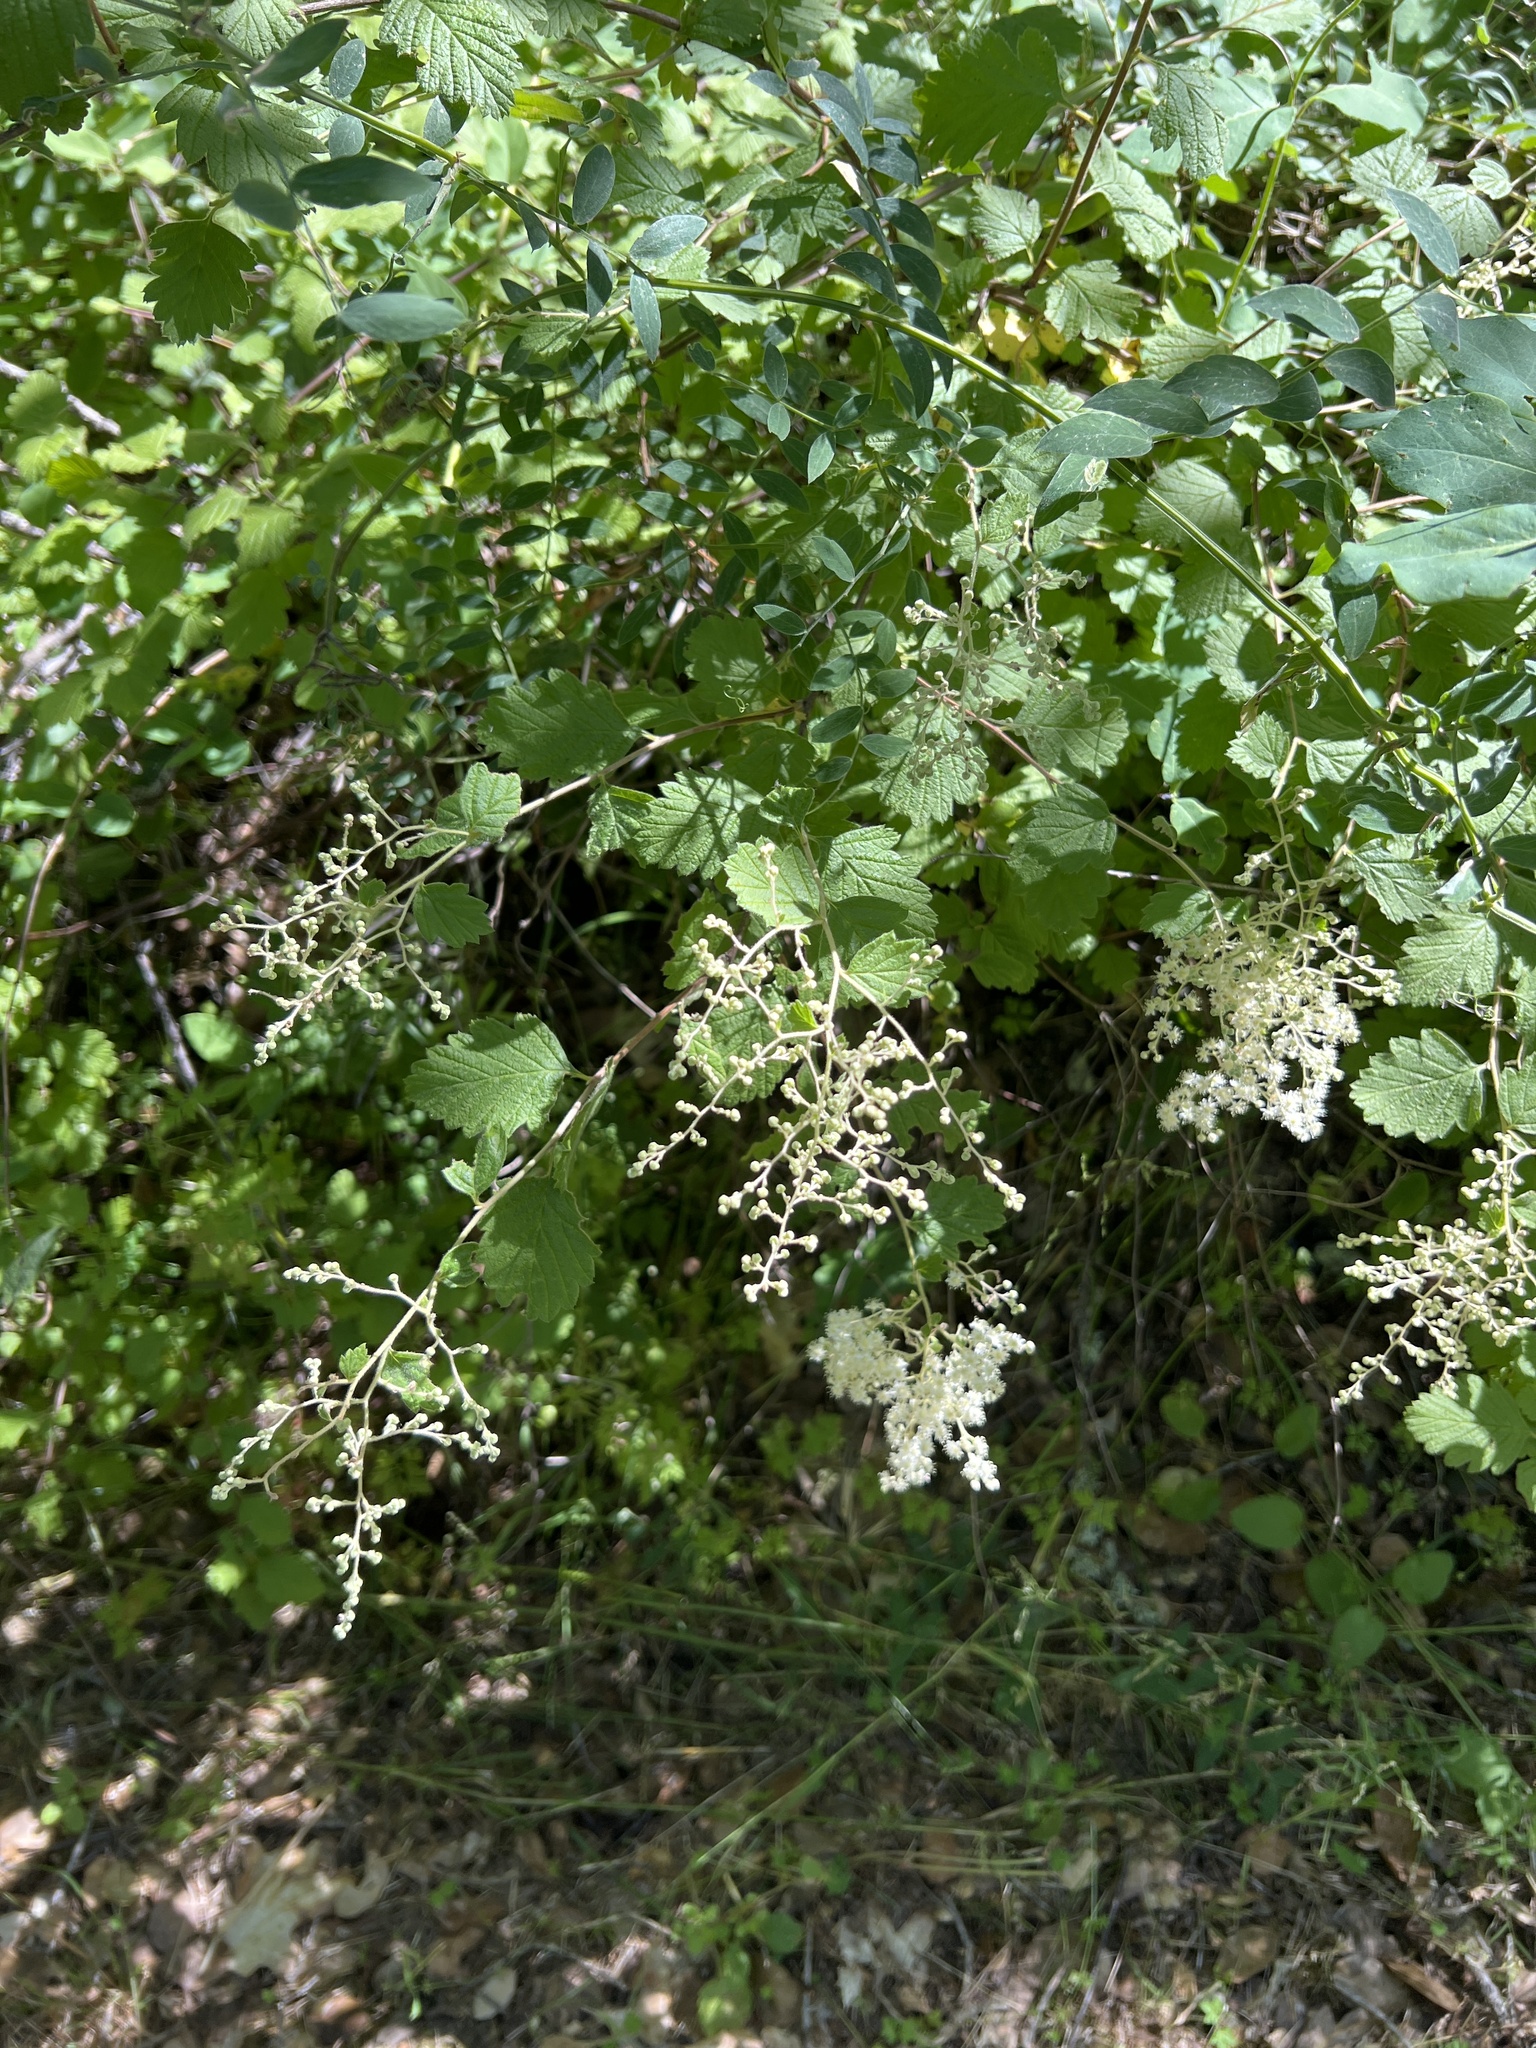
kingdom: Plantae
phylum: Tracheophyta
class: Magnoliopsida
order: Rosales
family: Rosaceae
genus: Holodiscus
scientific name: Holodiscus discolor
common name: Oceanspray
